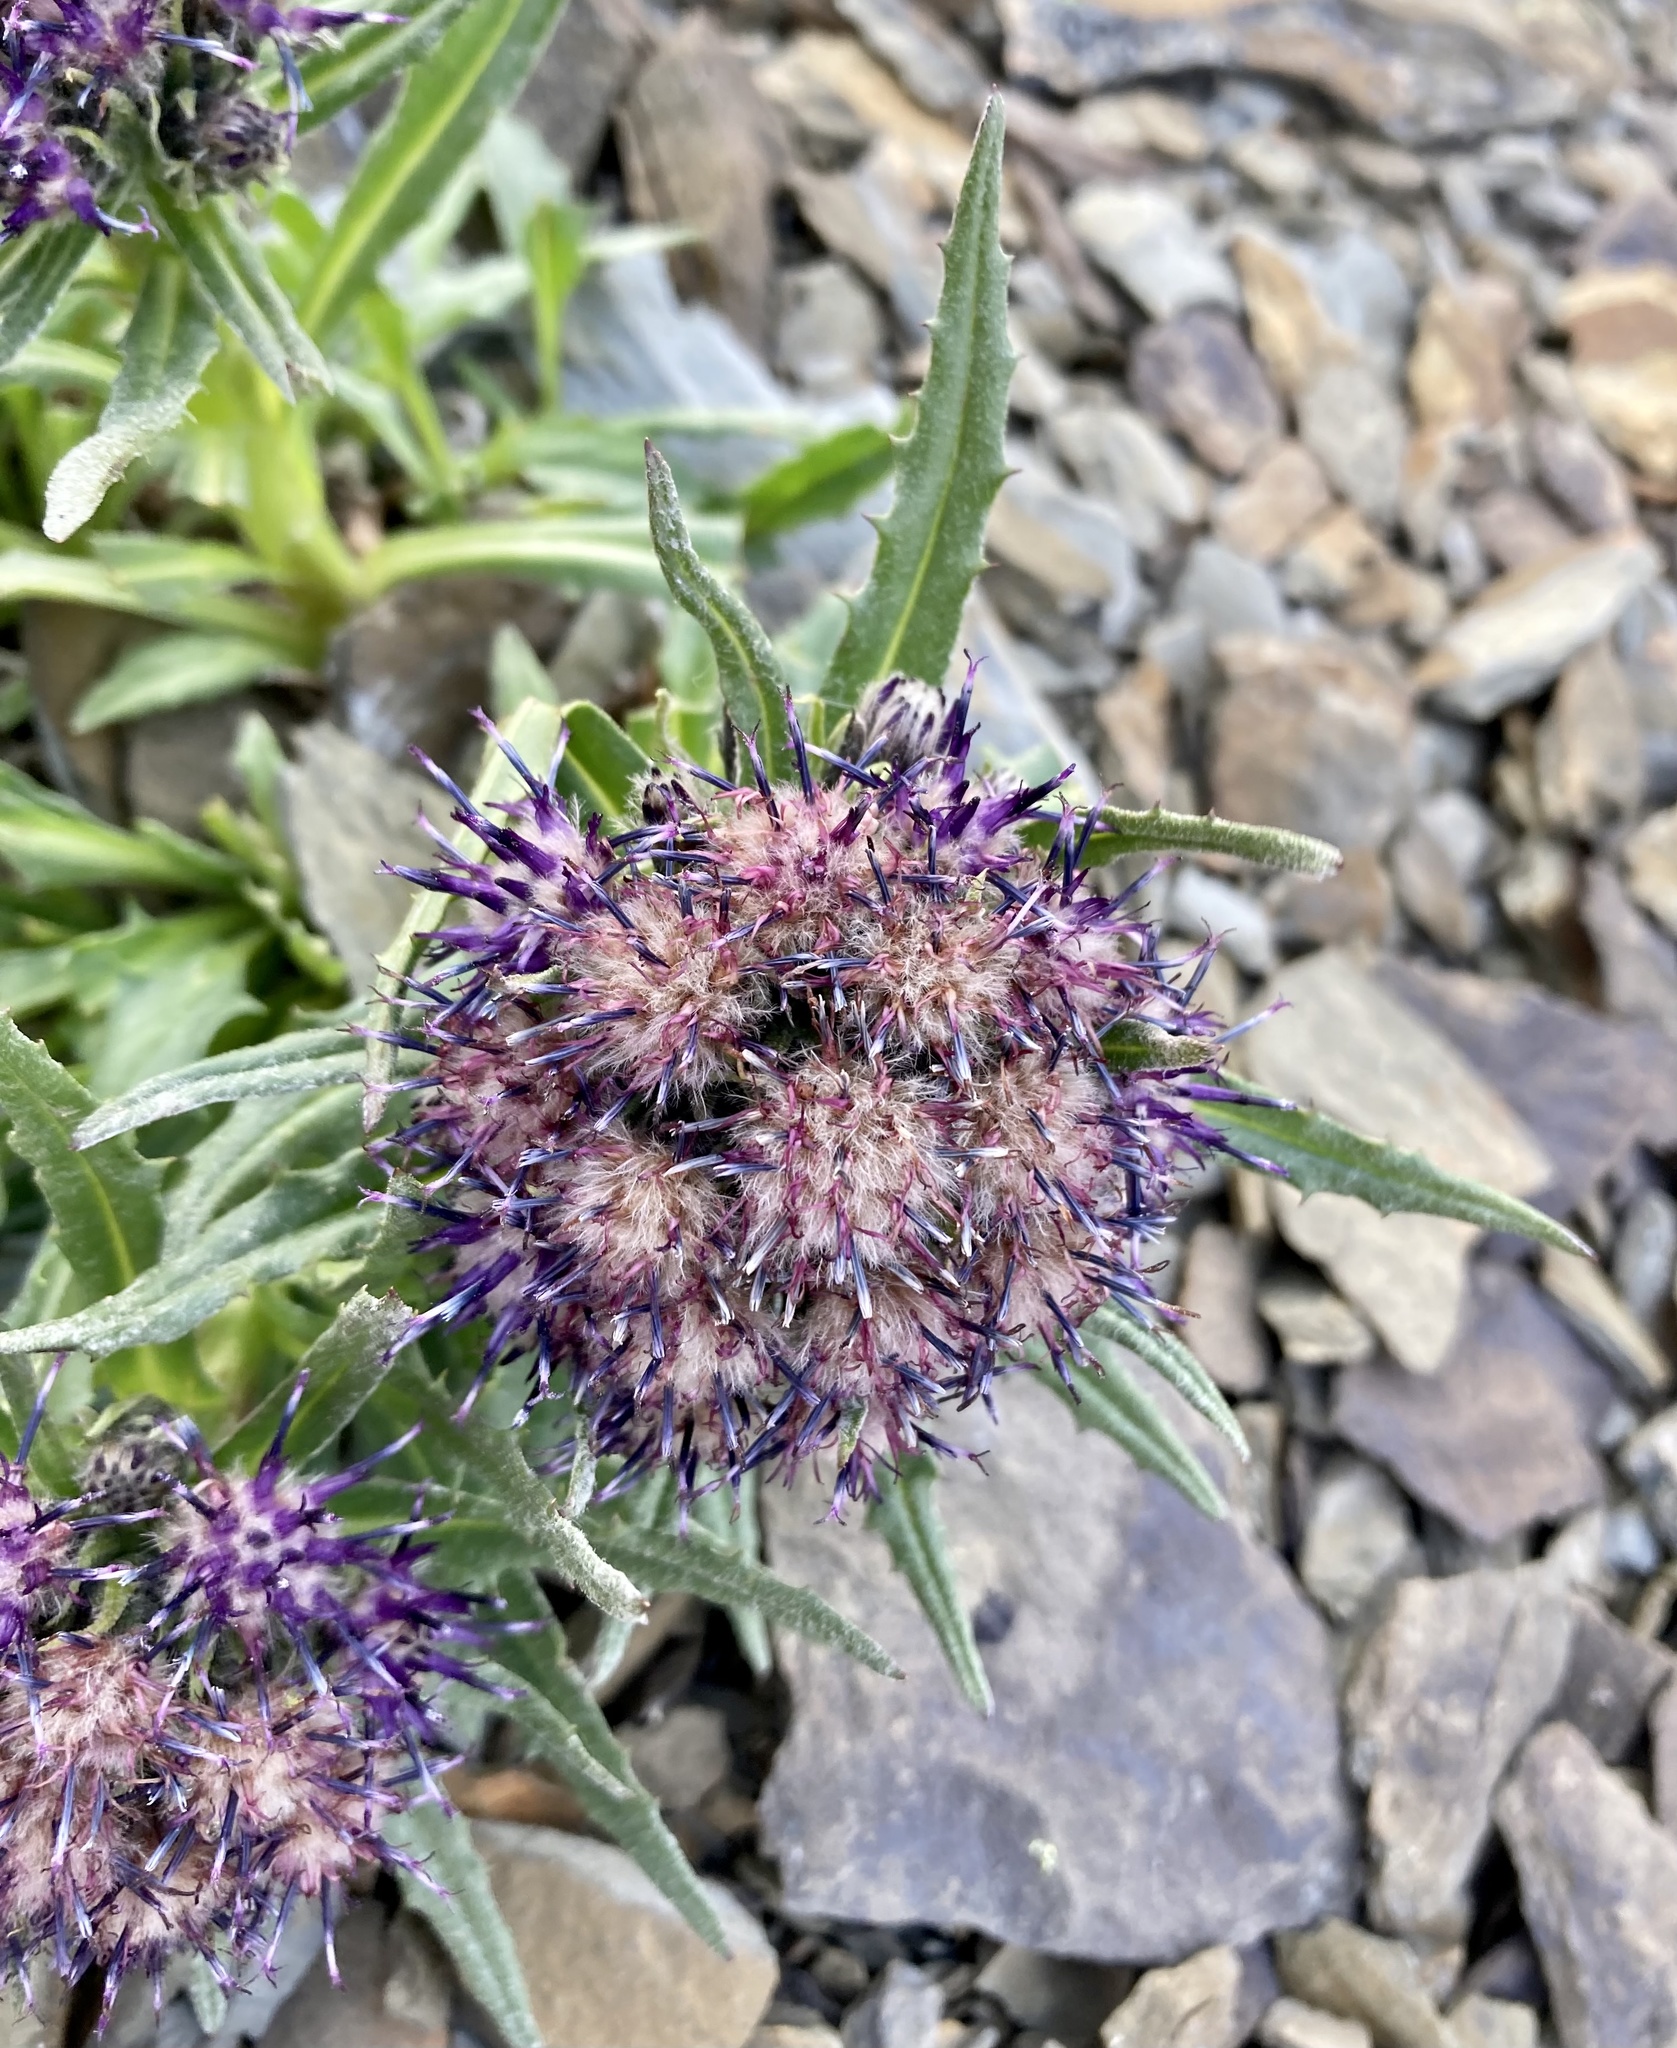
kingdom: Plantae
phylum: Tracheophyta
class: Magnoliopsida
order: Asterales
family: Asteraceae
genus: Saussurea
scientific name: Saussurea nuda
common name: Chaffless saw-wort
